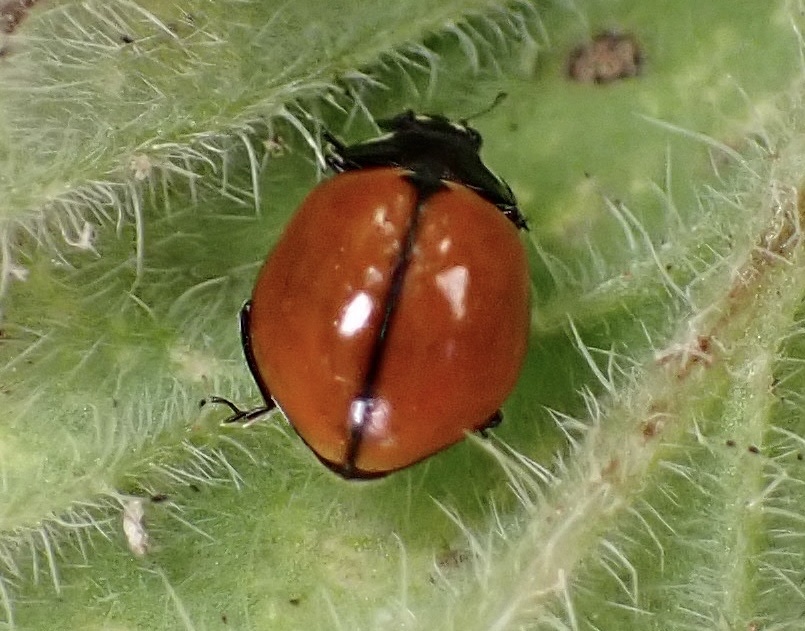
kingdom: Animalia
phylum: Arthropoda
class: Insecta
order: Coleoptera
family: Coccinellidae
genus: Coccinella
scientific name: Coccinella californica
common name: Lady beetle
